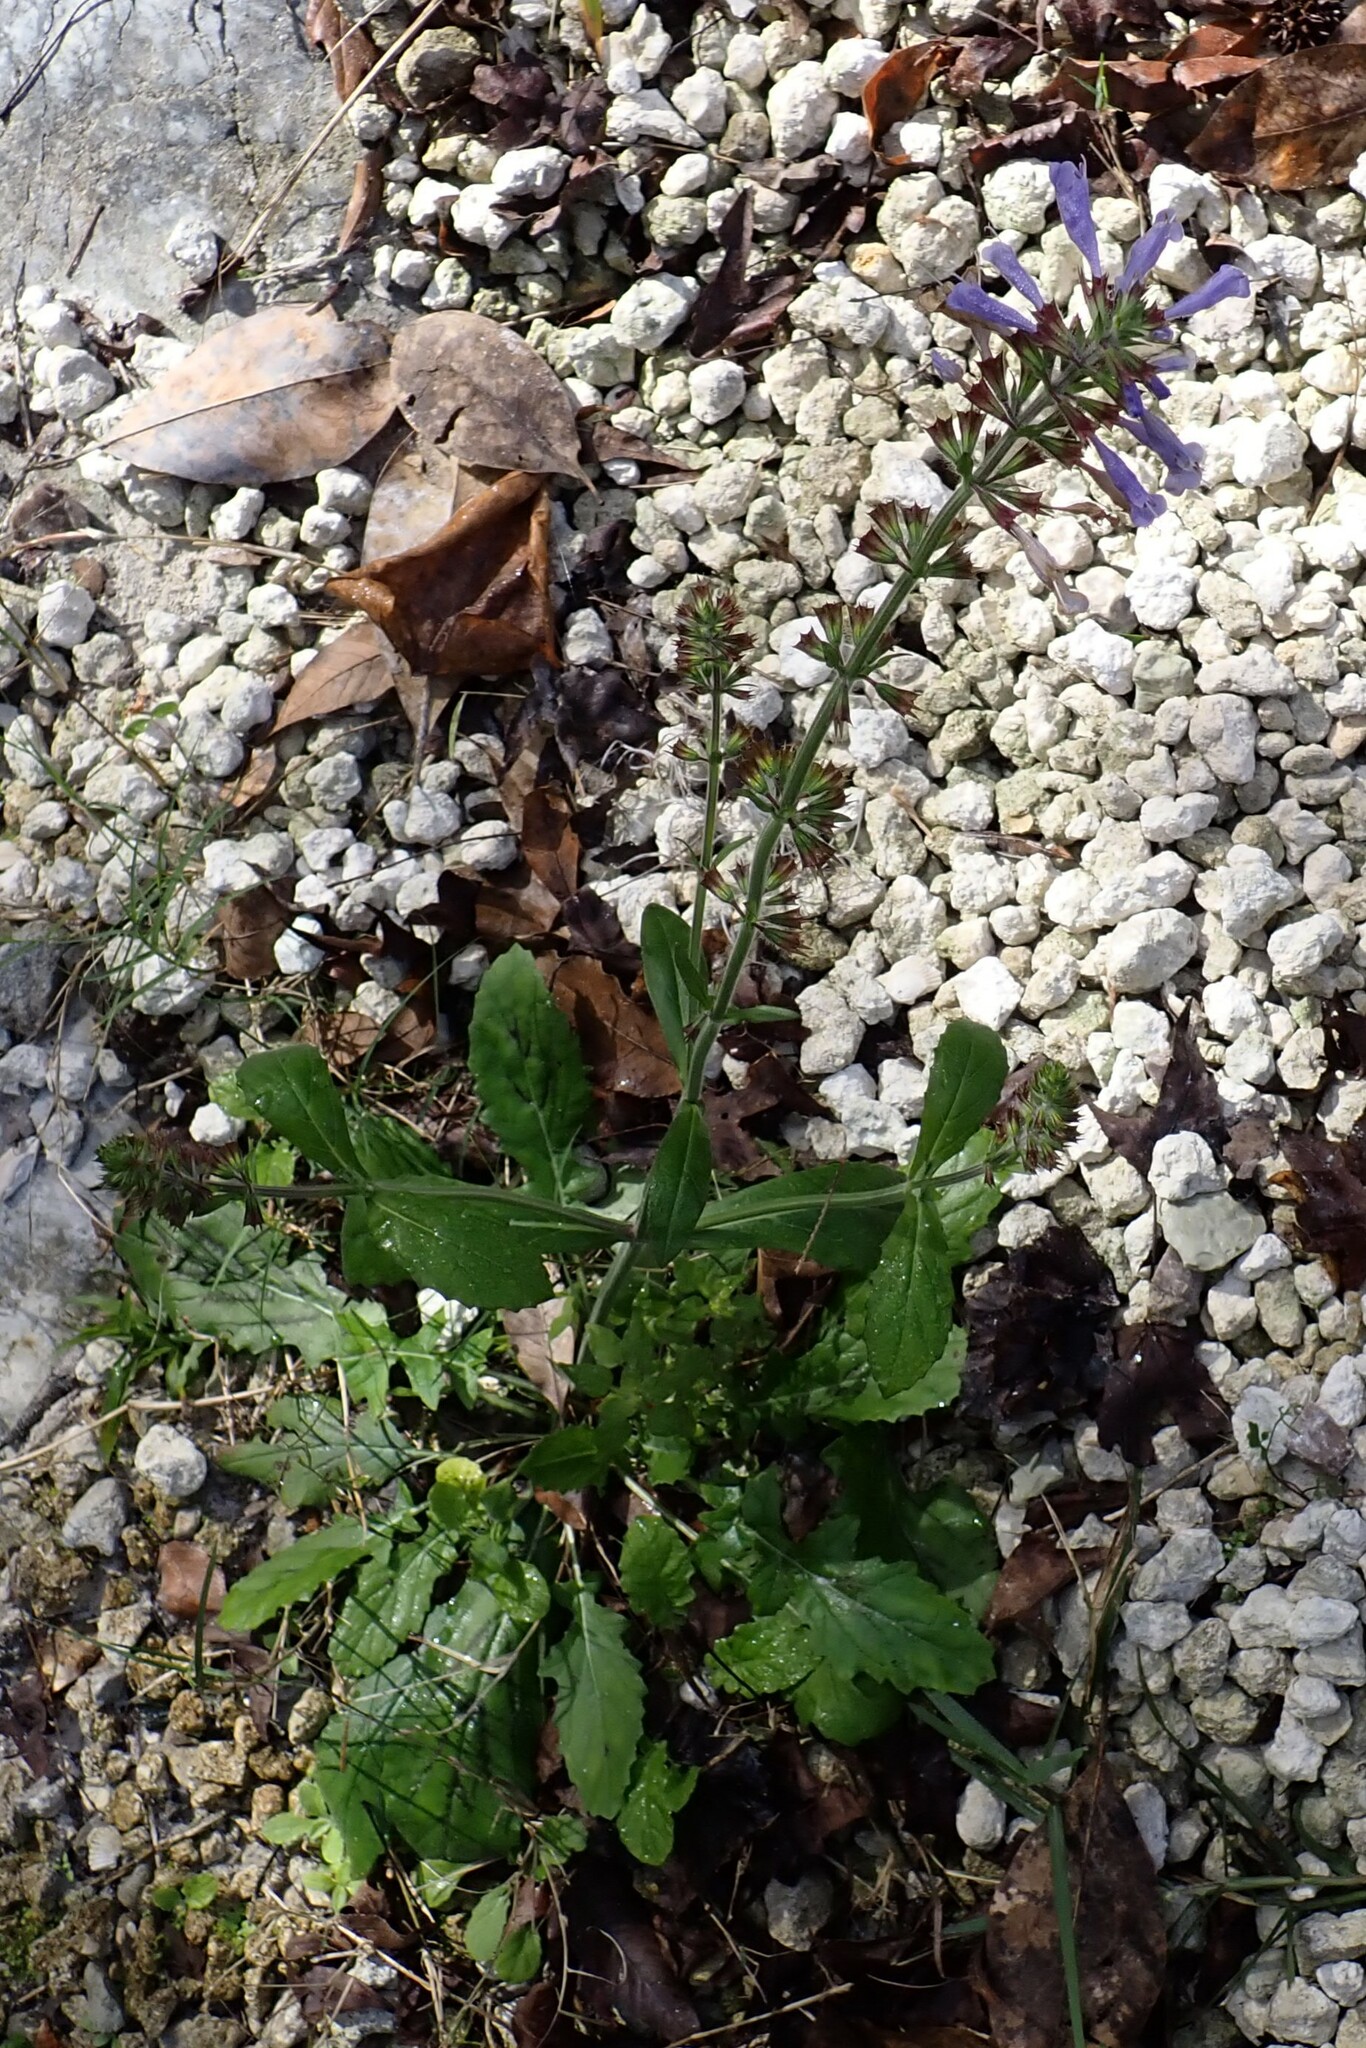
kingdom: Plantae
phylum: Tracheophyta
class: Magnoliopsida
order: Lamiales
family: Lamiaceae
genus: Salvia
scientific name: Salvia lyrata
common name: Cancerweed
